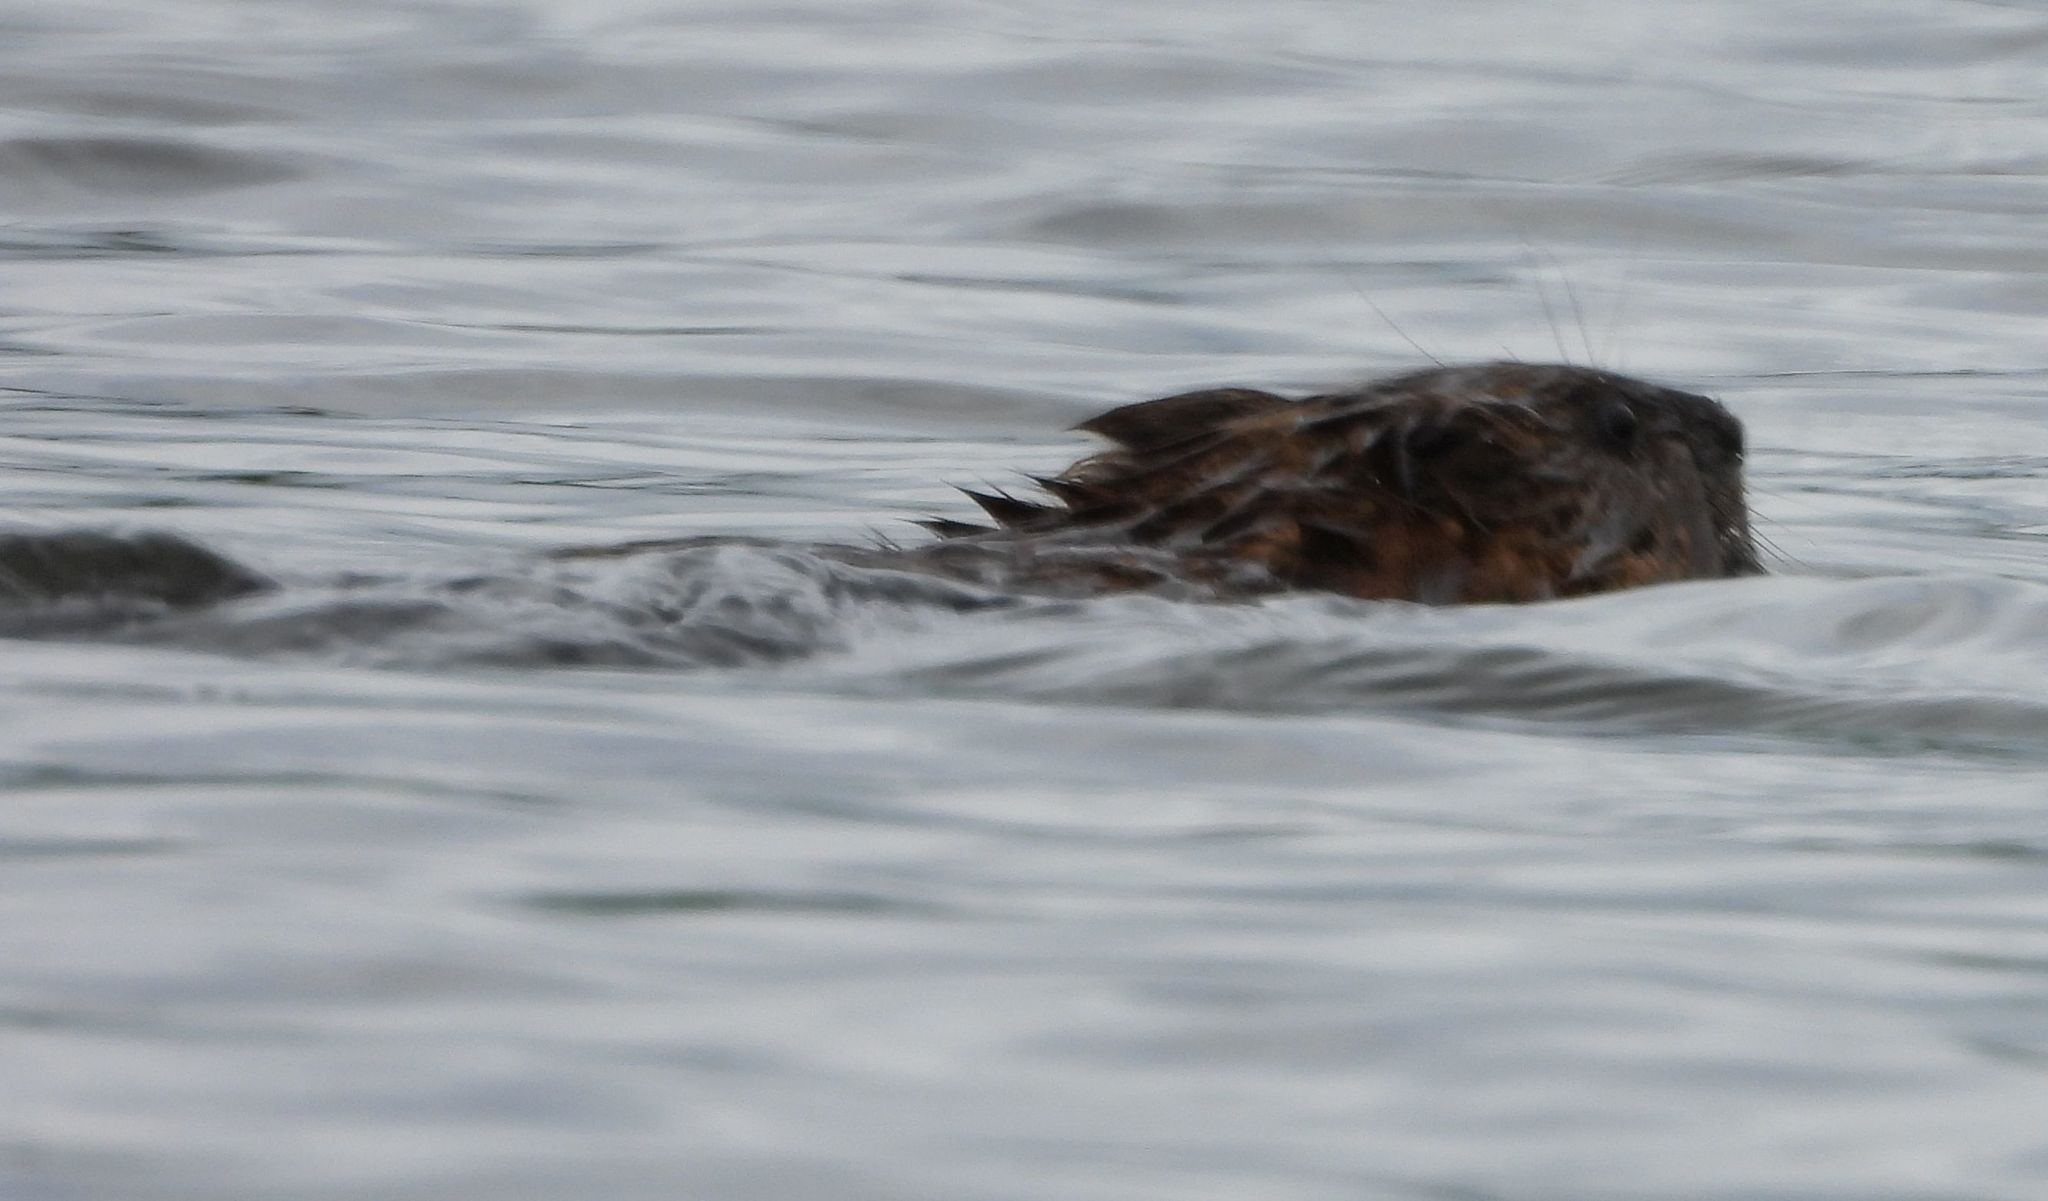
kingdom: Animalia
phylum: Chordata
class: Mammalia
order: Rodentia
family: Cricetidae
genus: Ondatra
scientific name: Ondatra zibethicus
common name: Muskrat
